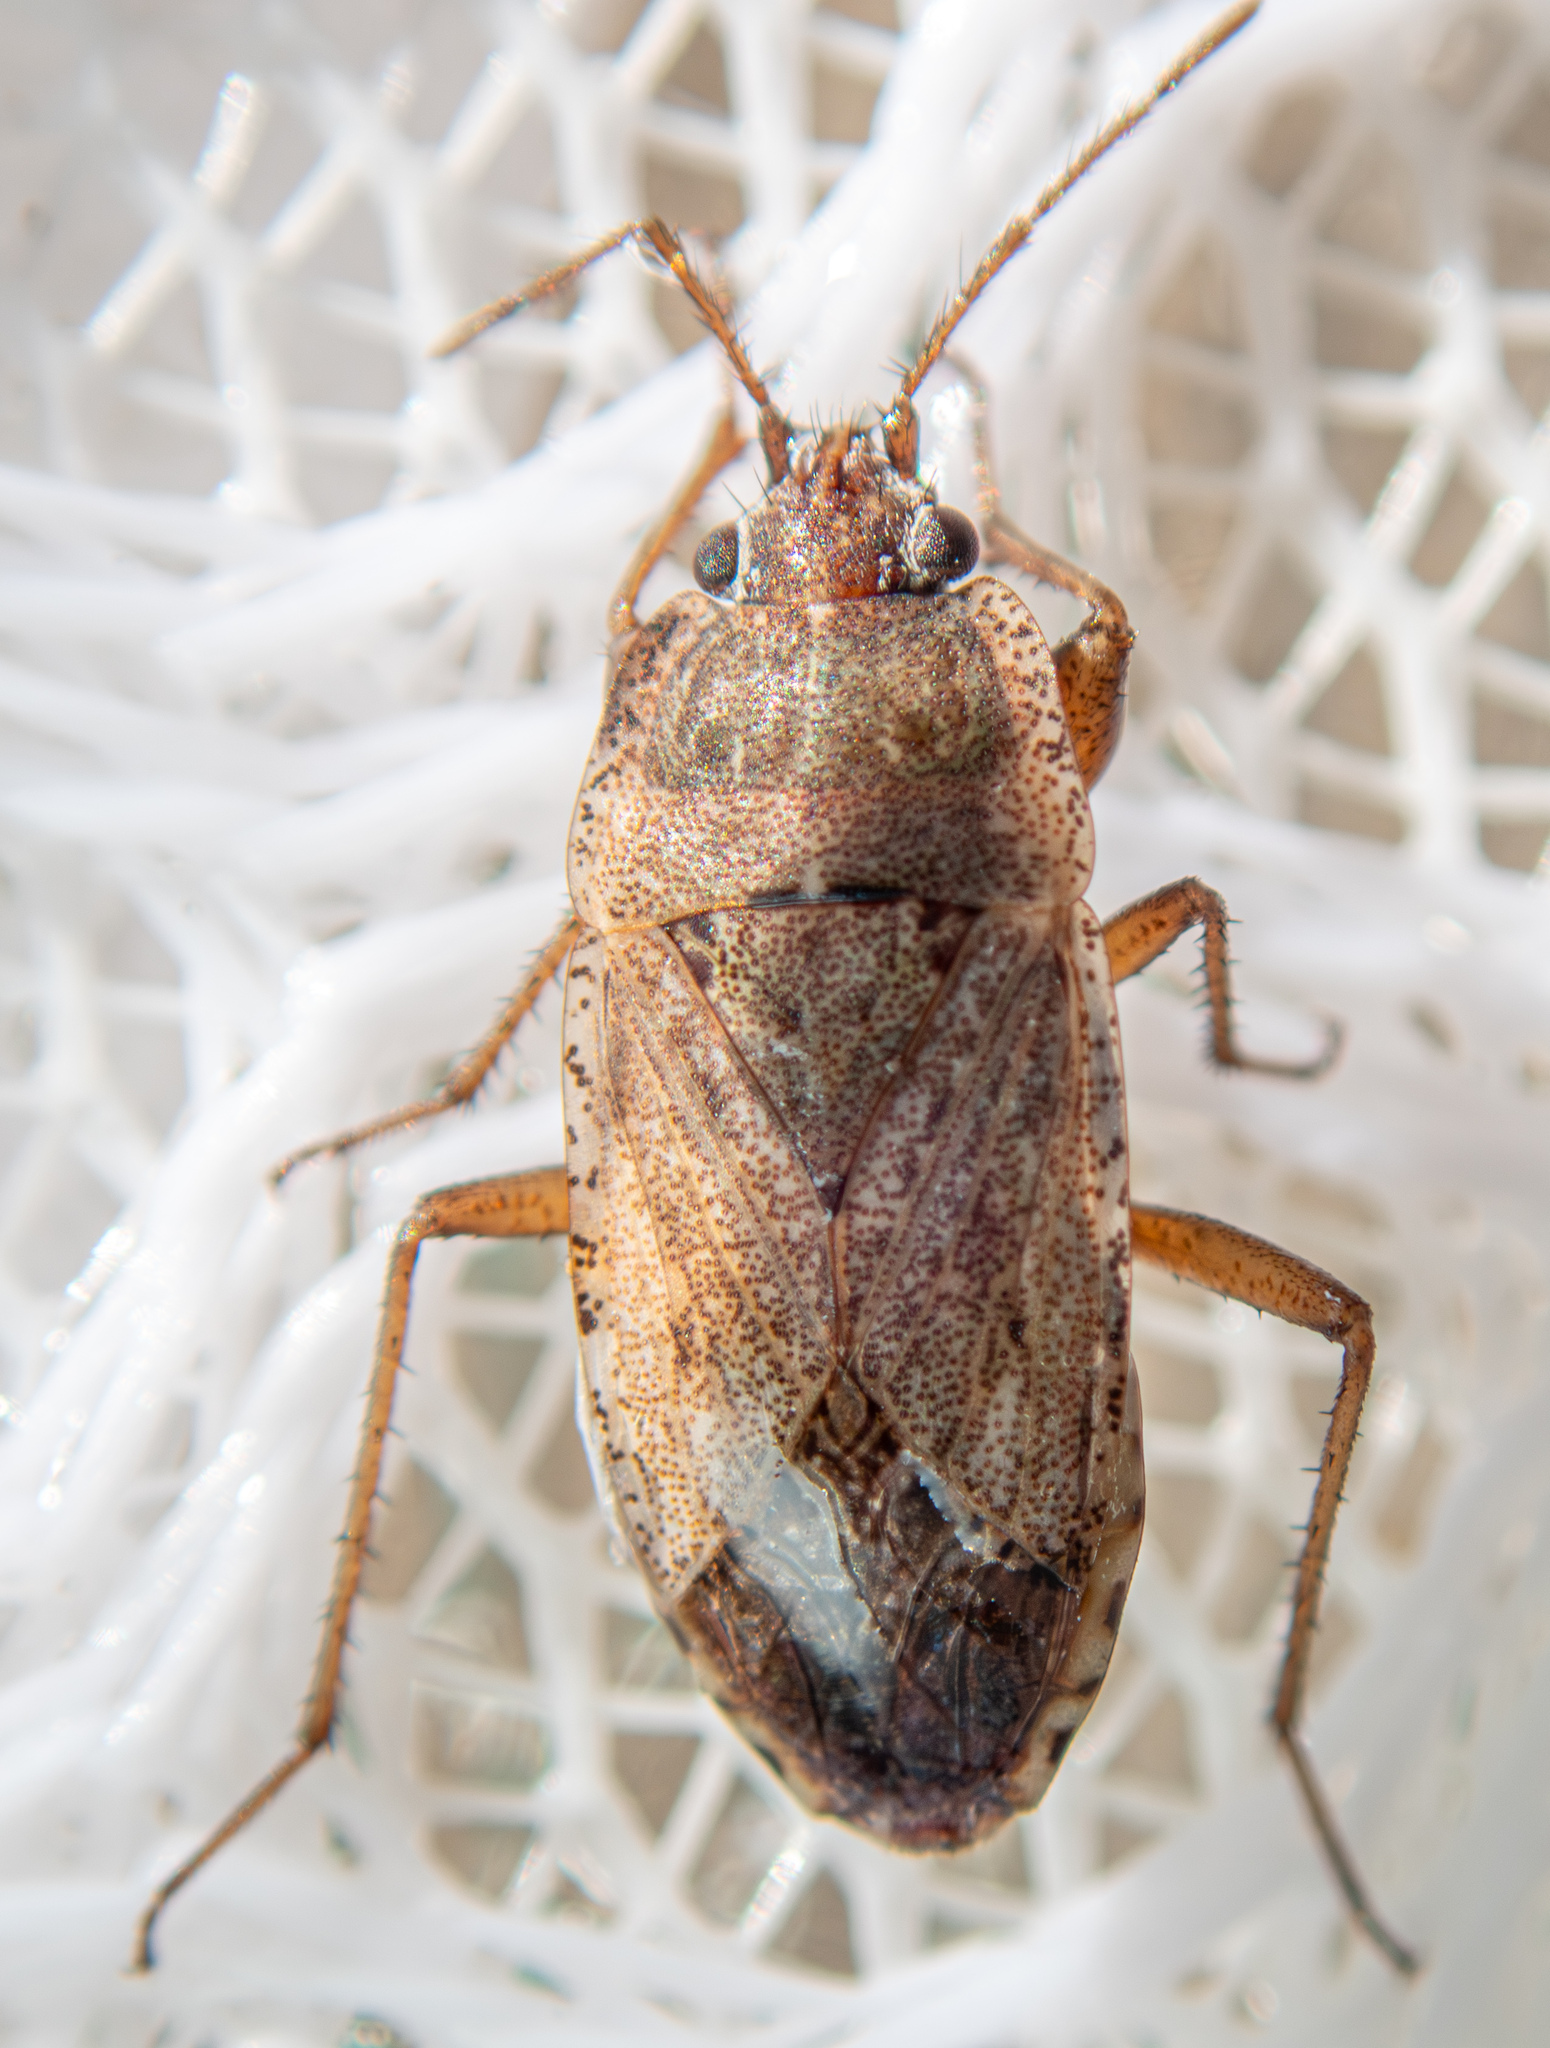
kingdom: Animalia
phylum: Arthropoda
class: Insecta
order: Hemiptera
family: Rhyparochromidae
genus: Emblethis
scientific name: Emblethis vicarius
